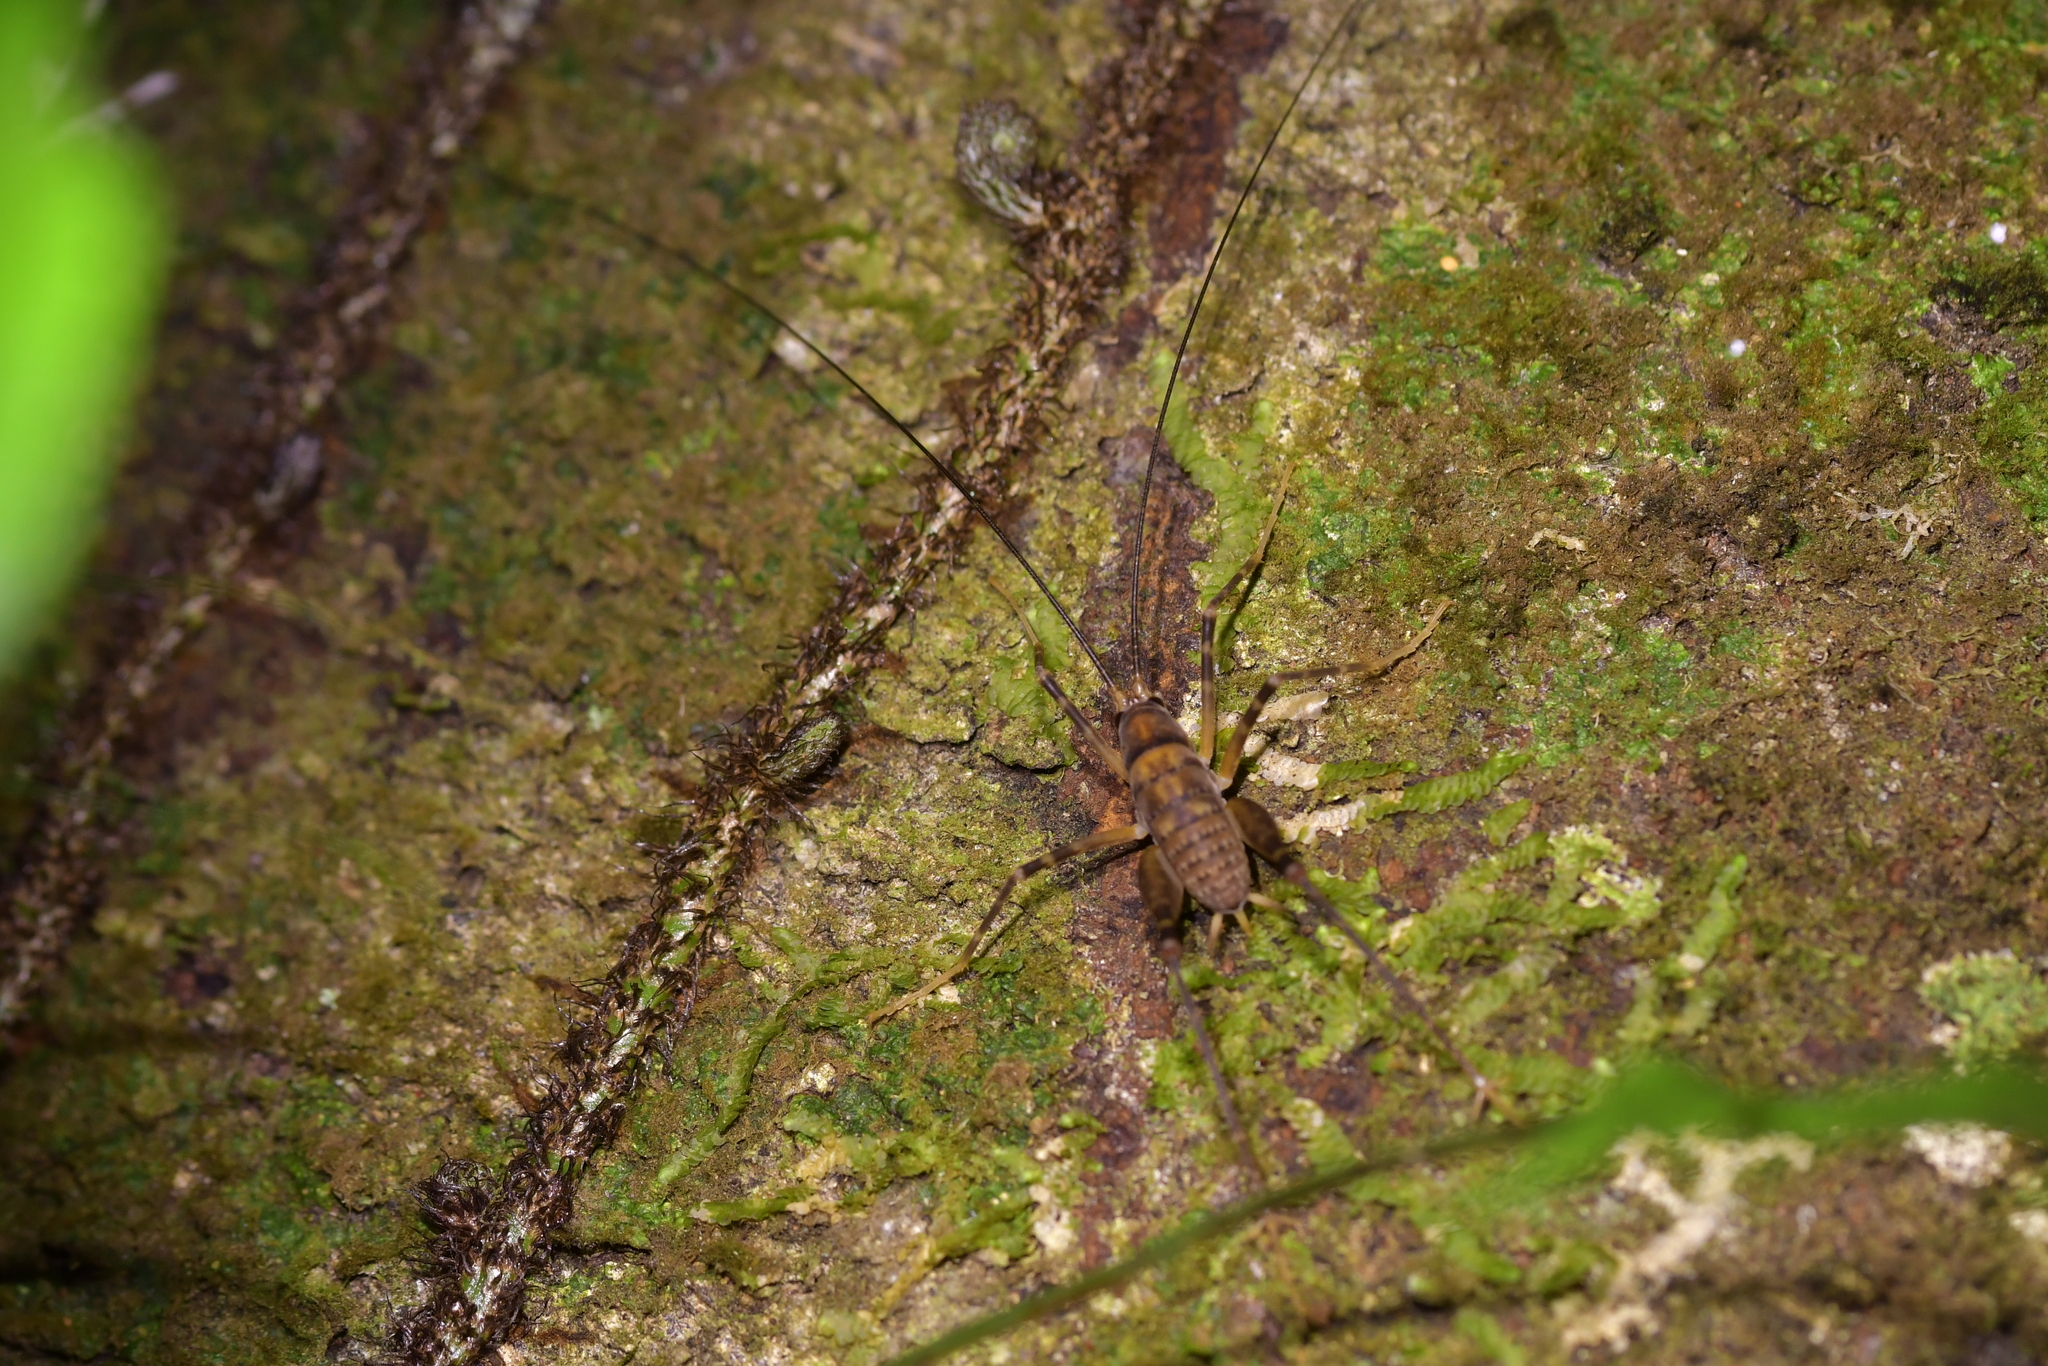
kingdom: Animalia
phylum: Arthropoda
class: Insecta
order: Orthoptera
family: Rhaphidophoridae
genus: Pachyrhamma
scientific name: Pachyrhamma edwardsii
